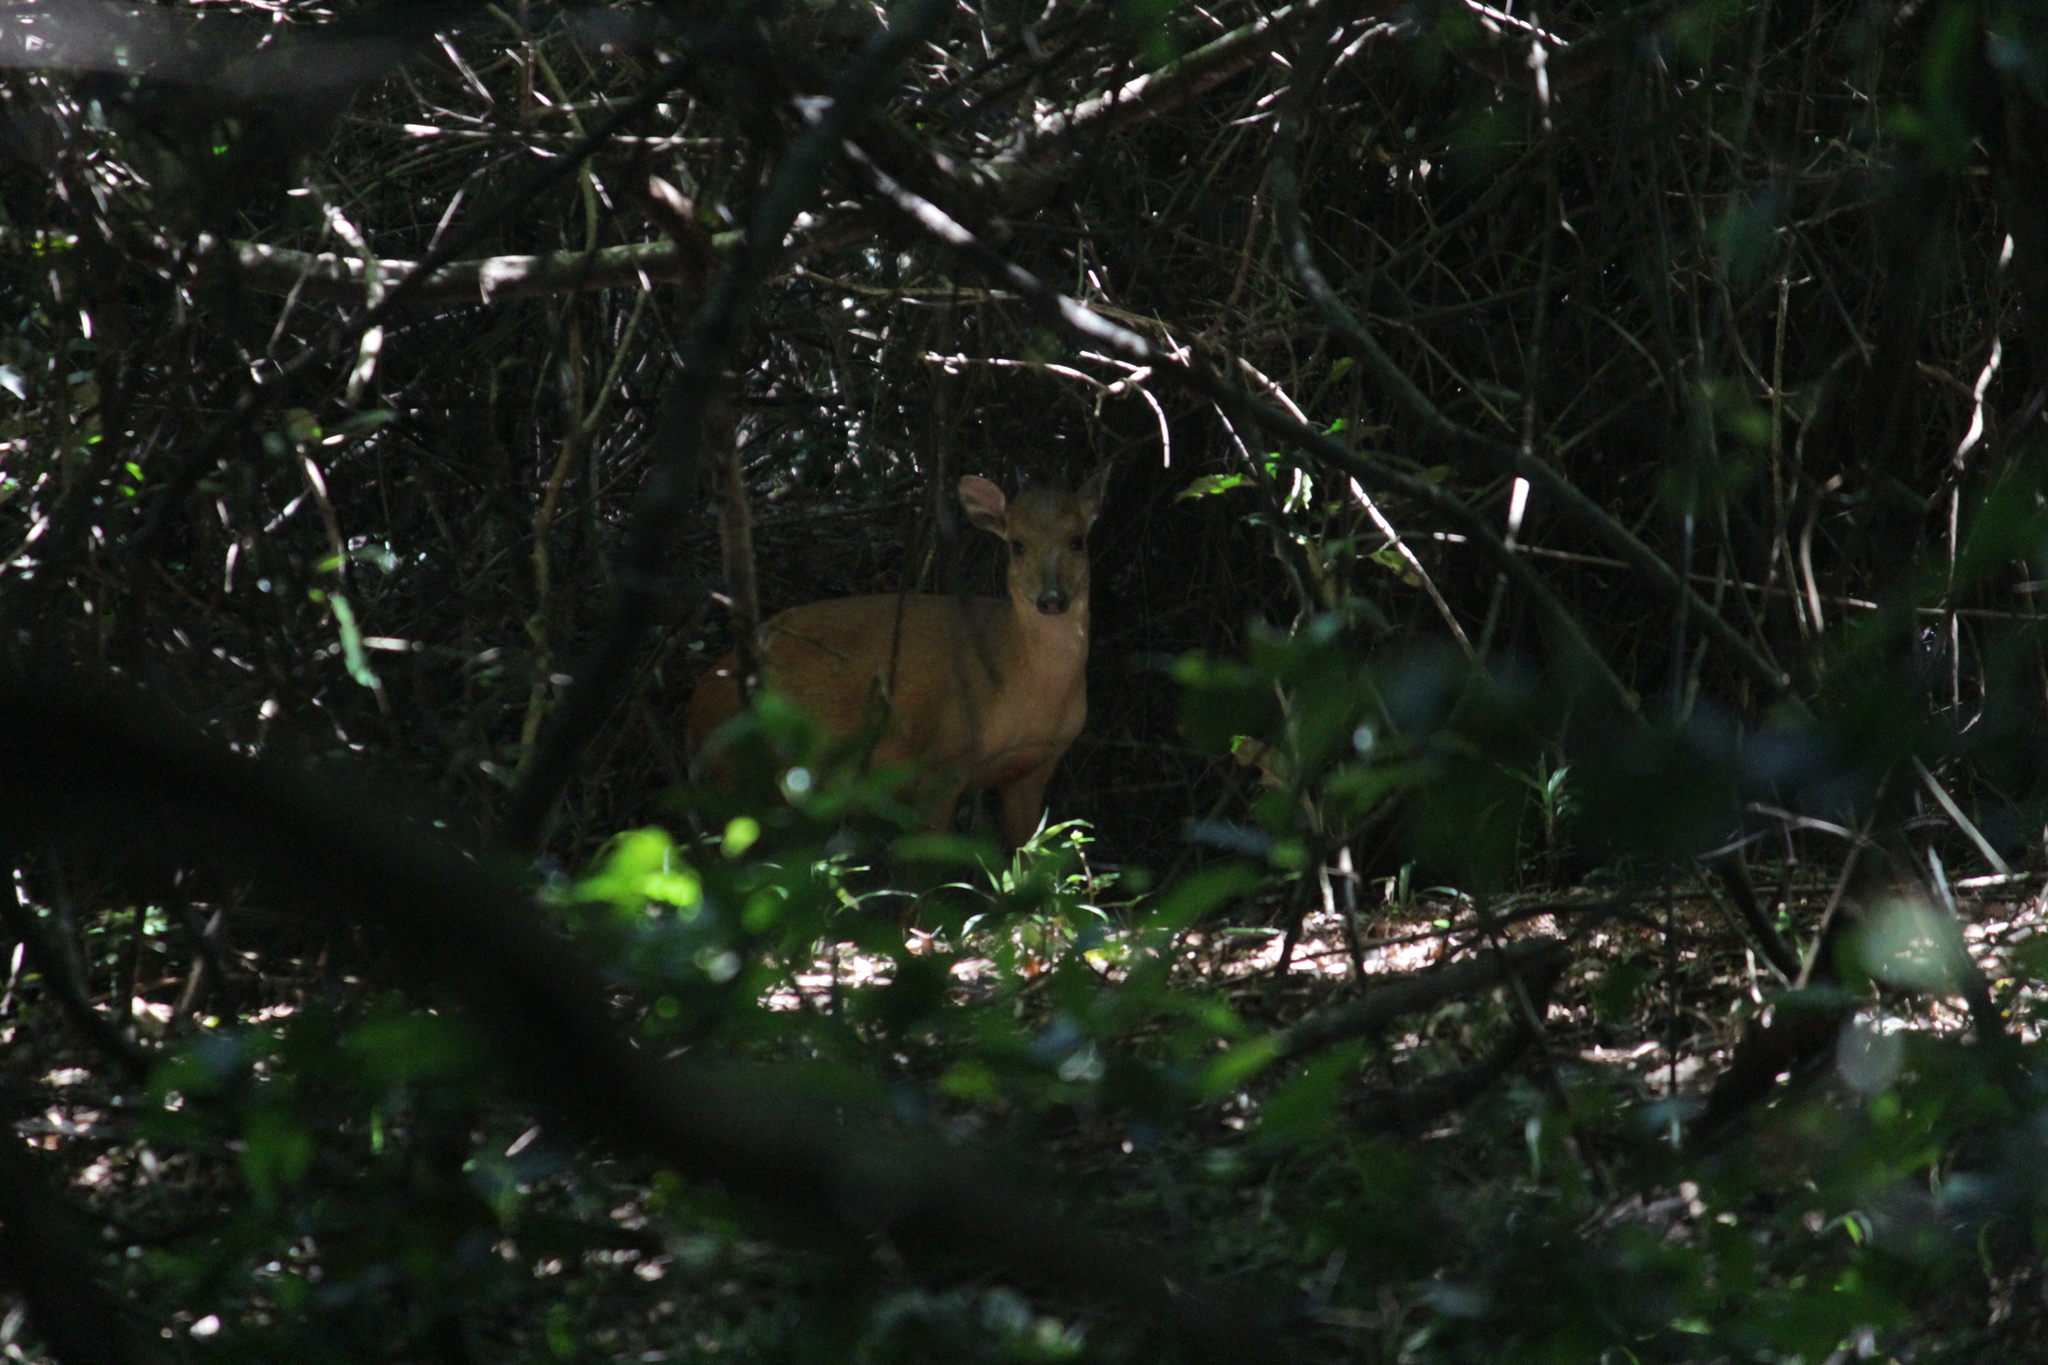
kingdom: Animalia
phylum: Chordata
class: Mammalia
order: Artiodactyla
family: Bovidae
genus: Cephalophus
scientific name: Cephalophus natalensis
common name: Red duiker
